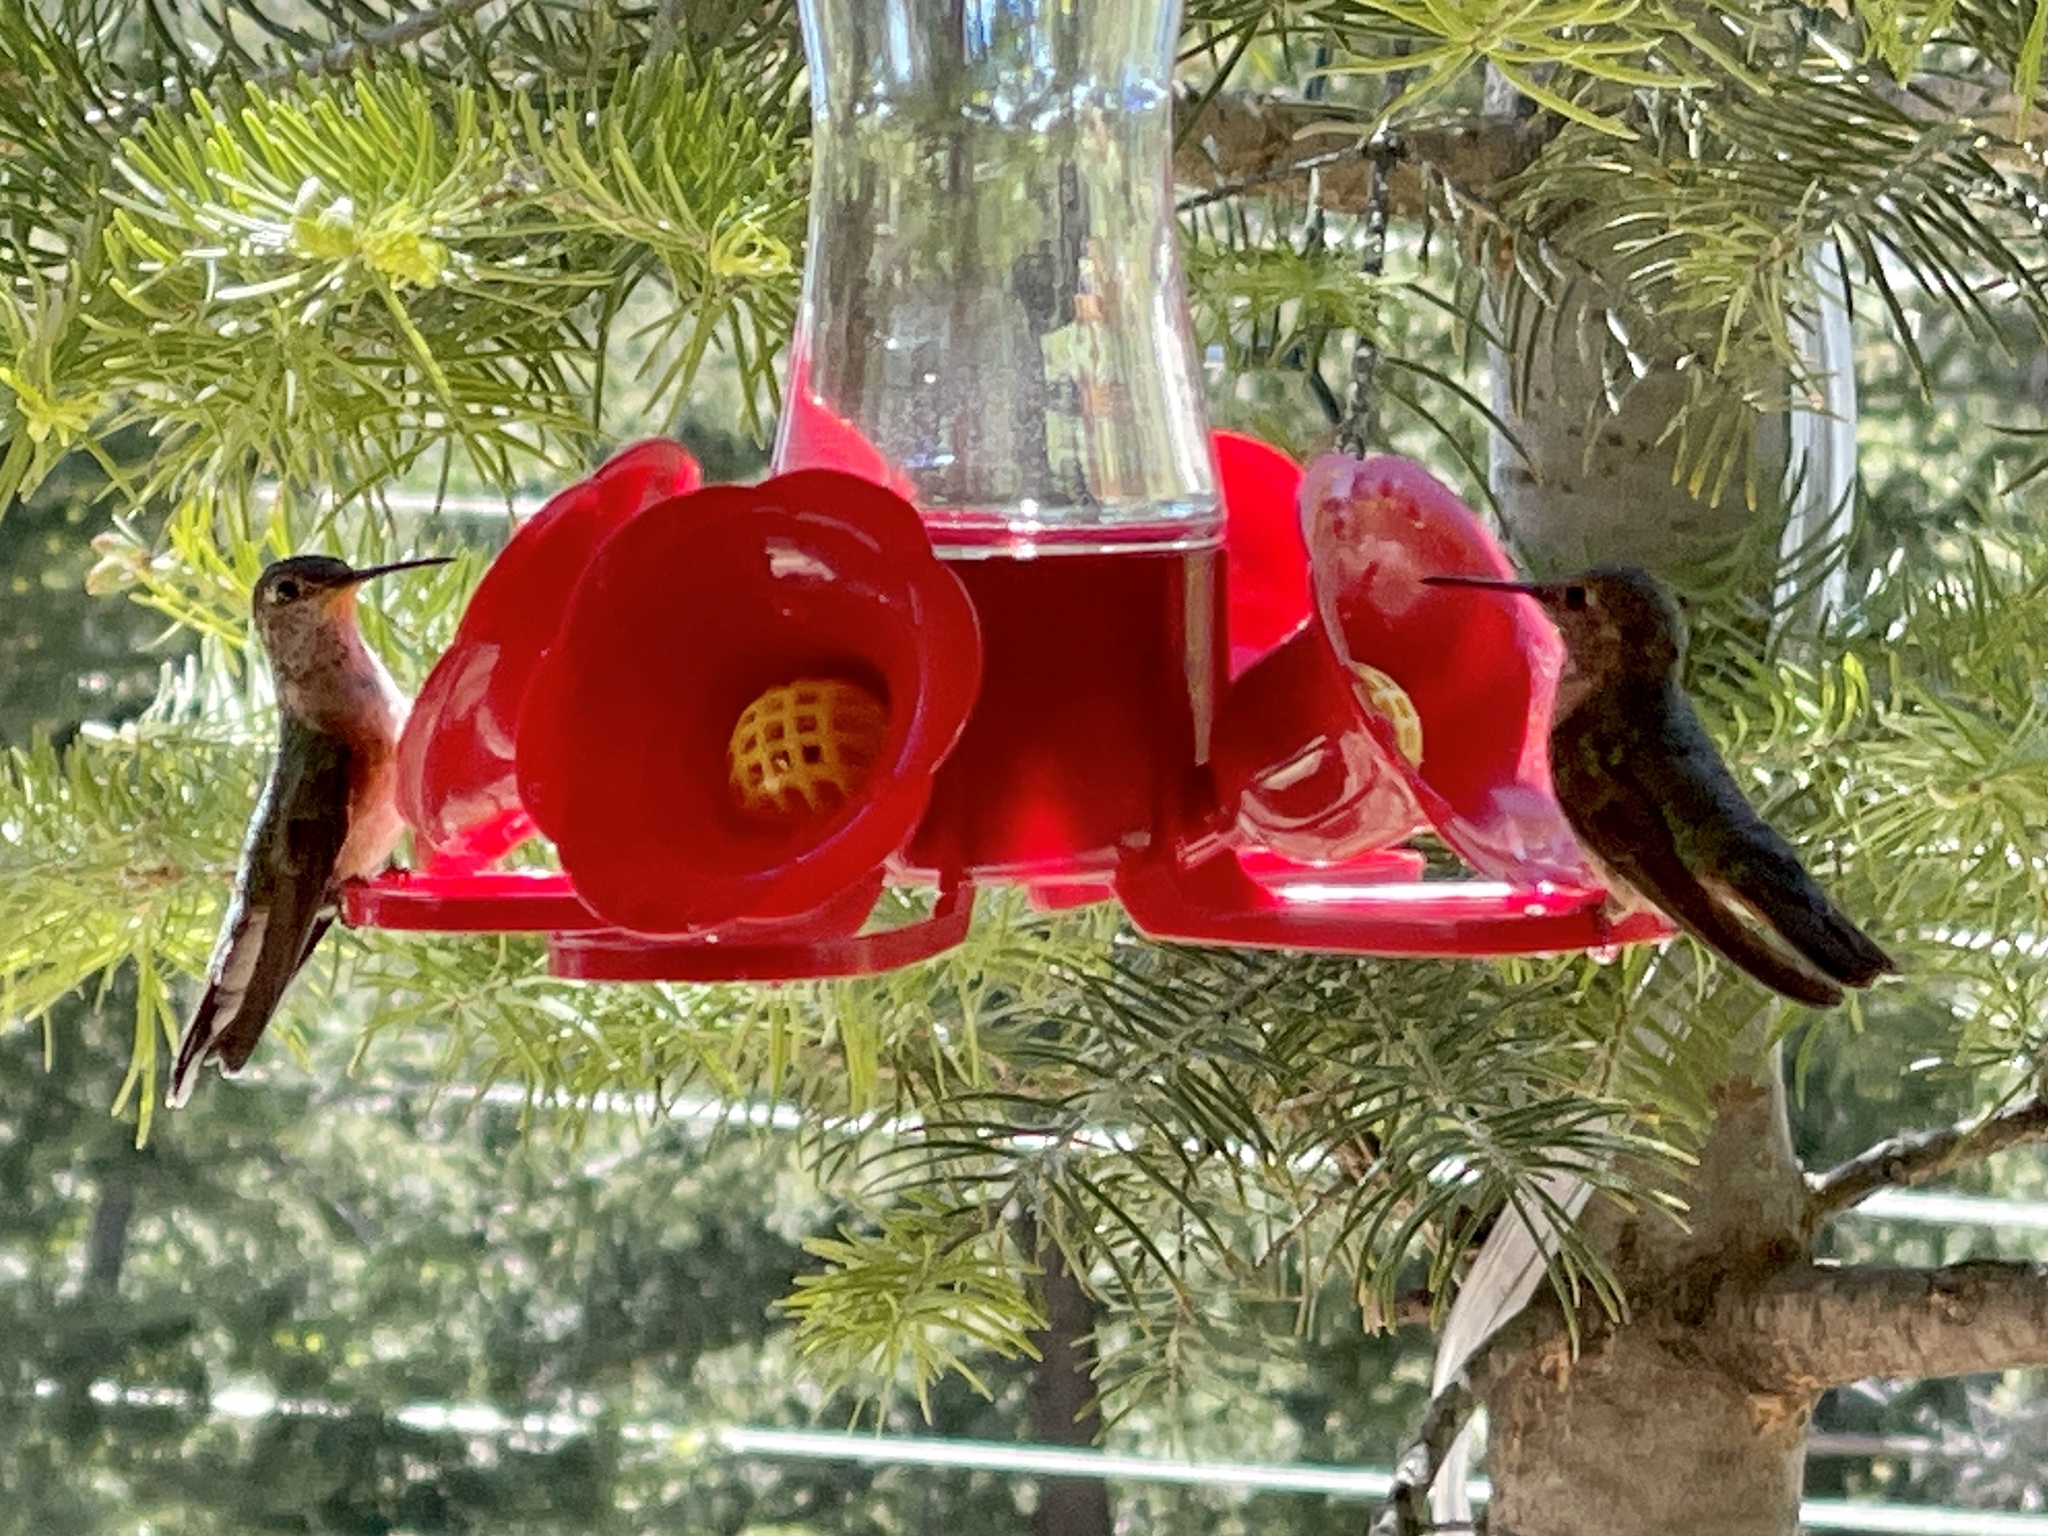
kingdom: Animalia
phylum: Chordata
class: Aves
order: Apodiformes
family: Trochilidae
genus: Selasphorus
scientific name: Selasphorus platycercus
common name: Broad-tailed hummingbird
